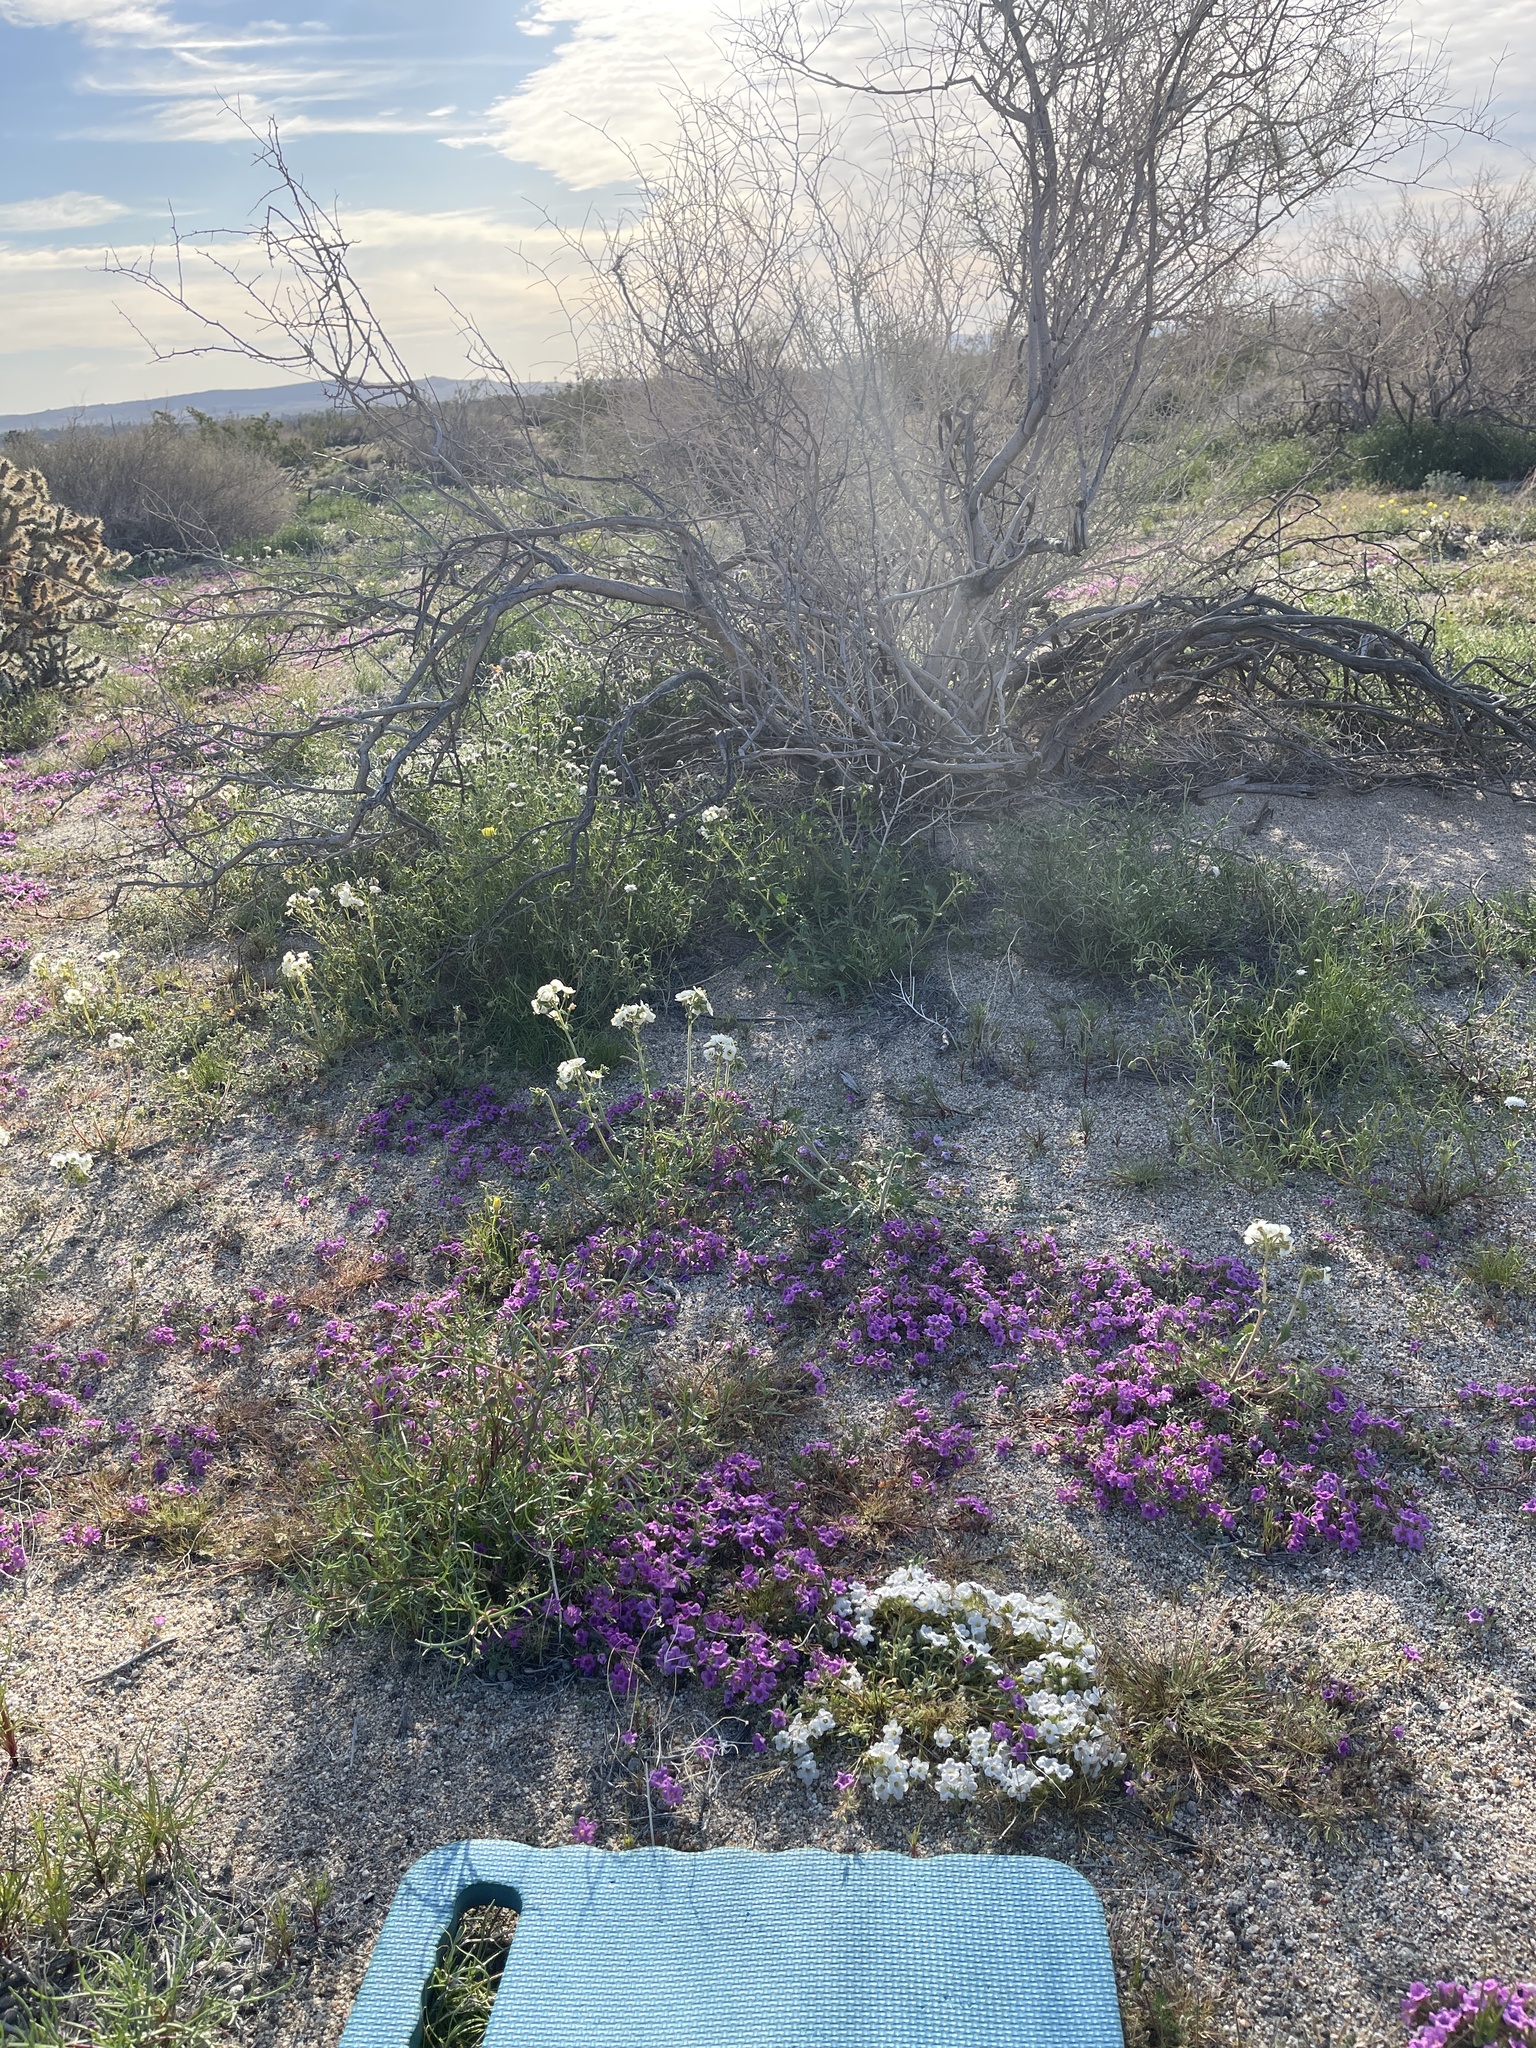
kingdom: Plantae
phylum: Tracheophyta
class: Magnoliopsida
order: Boraginales
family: Namaceae
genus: Nama
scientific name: Nama demissa
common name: Leafy nama
